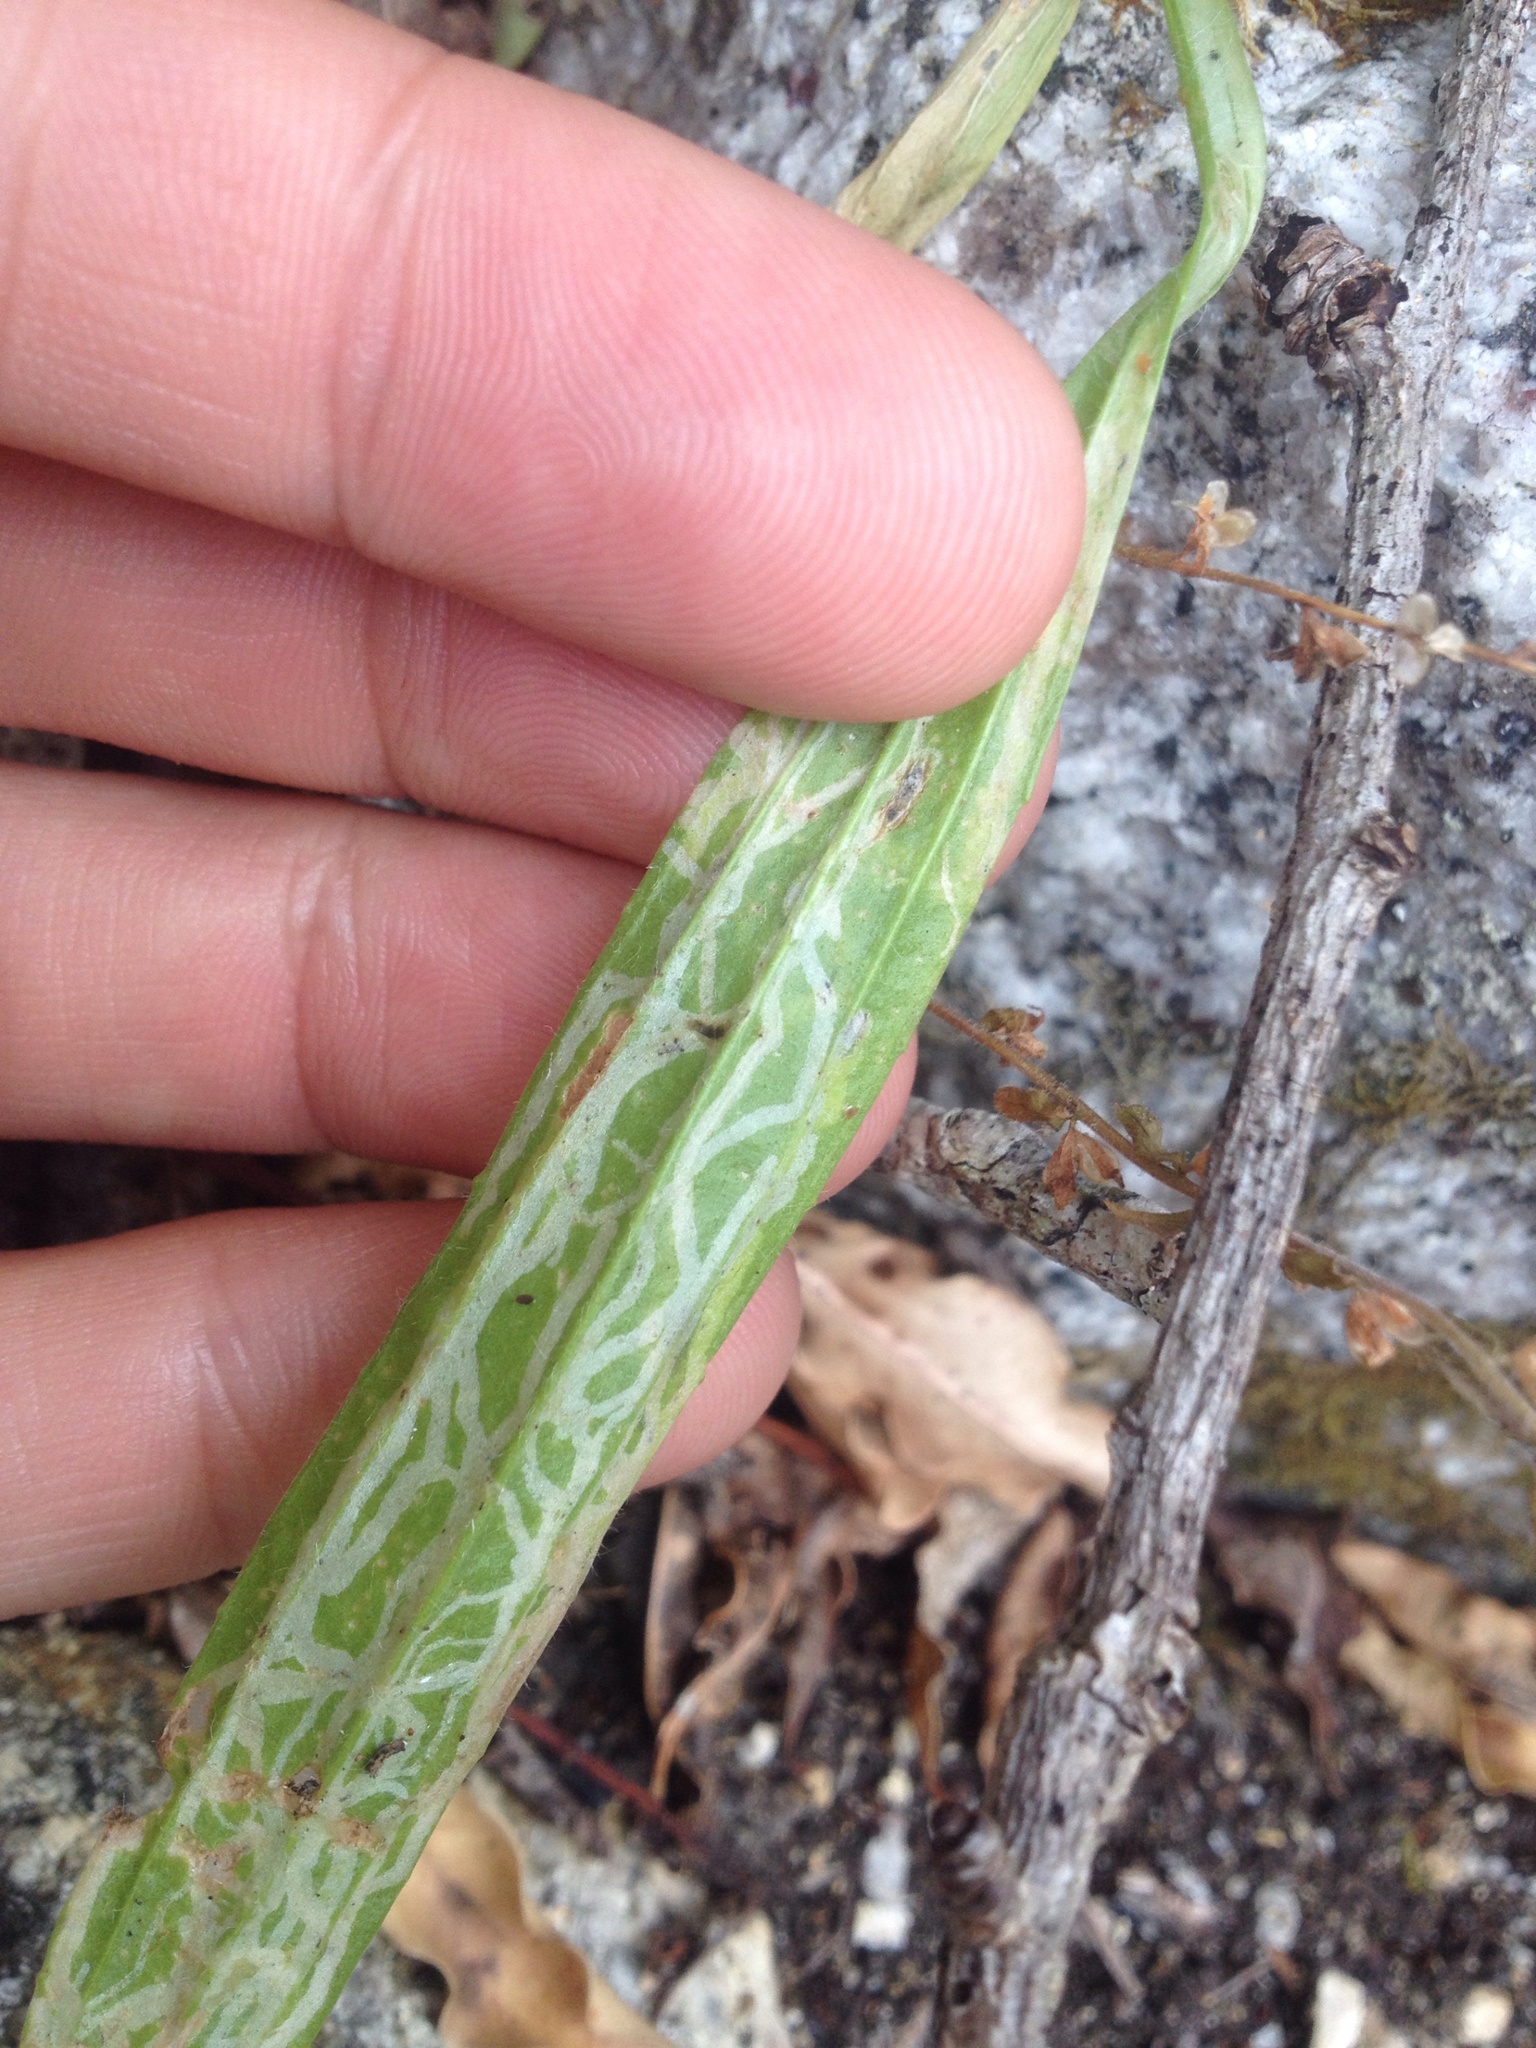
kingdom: Animalia
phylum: Arthropoda
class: Insecta
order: Diptera
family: Agromyzidae
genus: Phytomyza
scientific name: Phytomyza plantaginis
